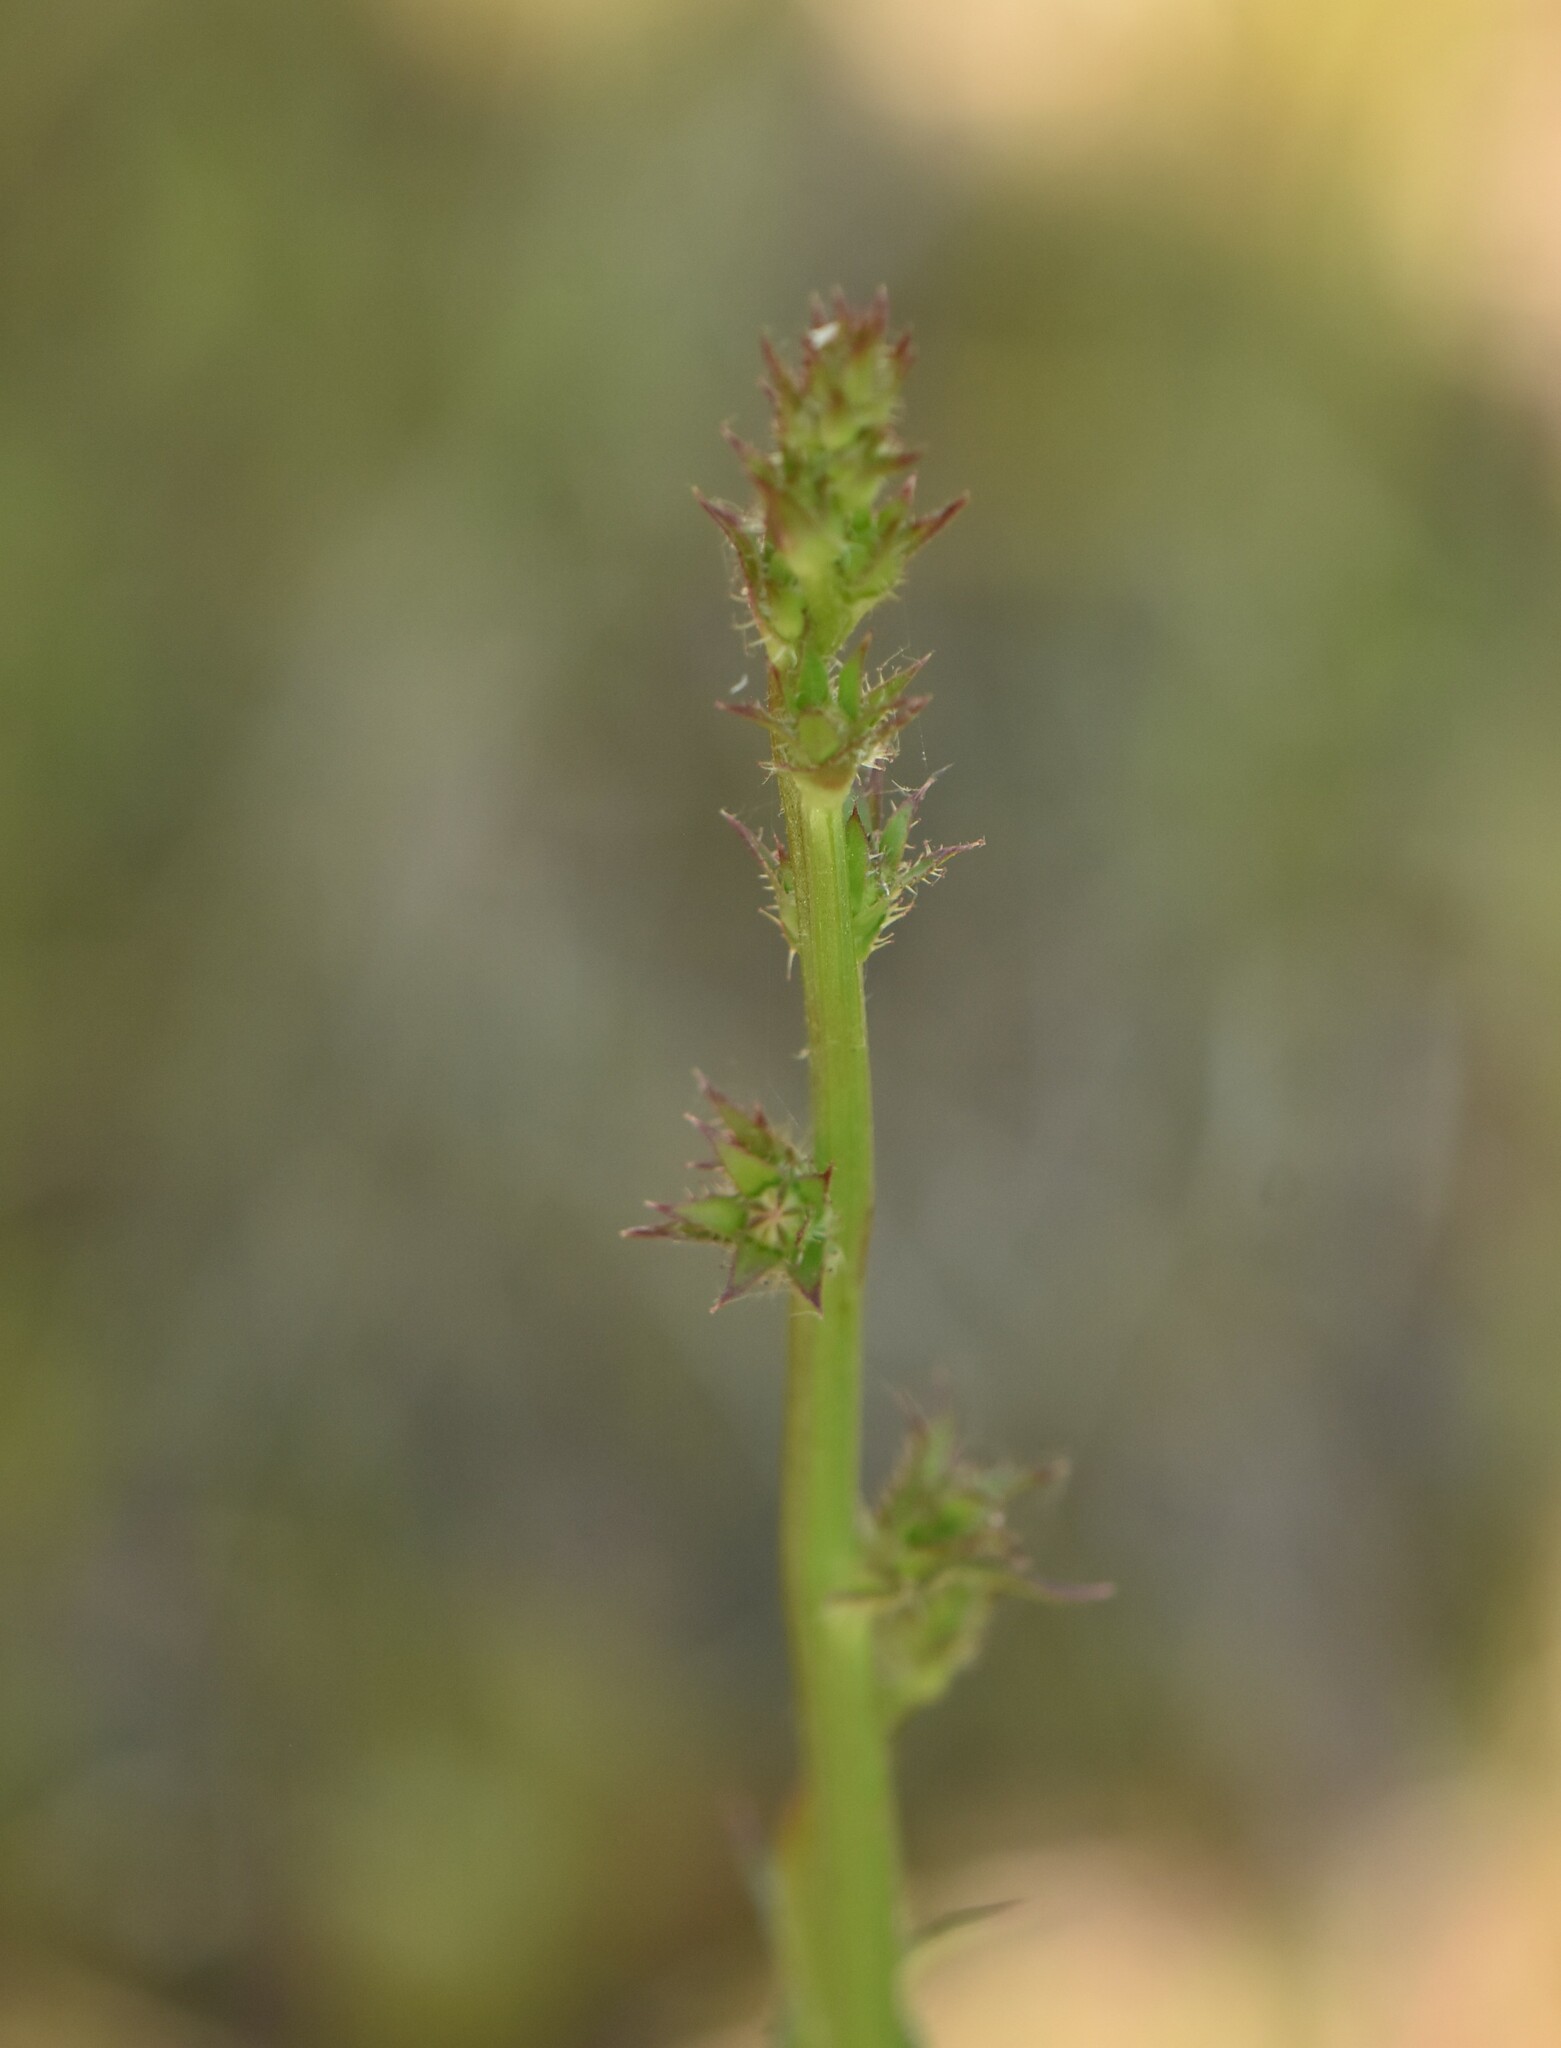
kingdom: Plantae
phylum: Tracheophyta
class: Magnoliopsida
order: Asterales
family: Asteraceae
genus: Cichorium
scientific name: Cichorium intybus
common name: Chicory
